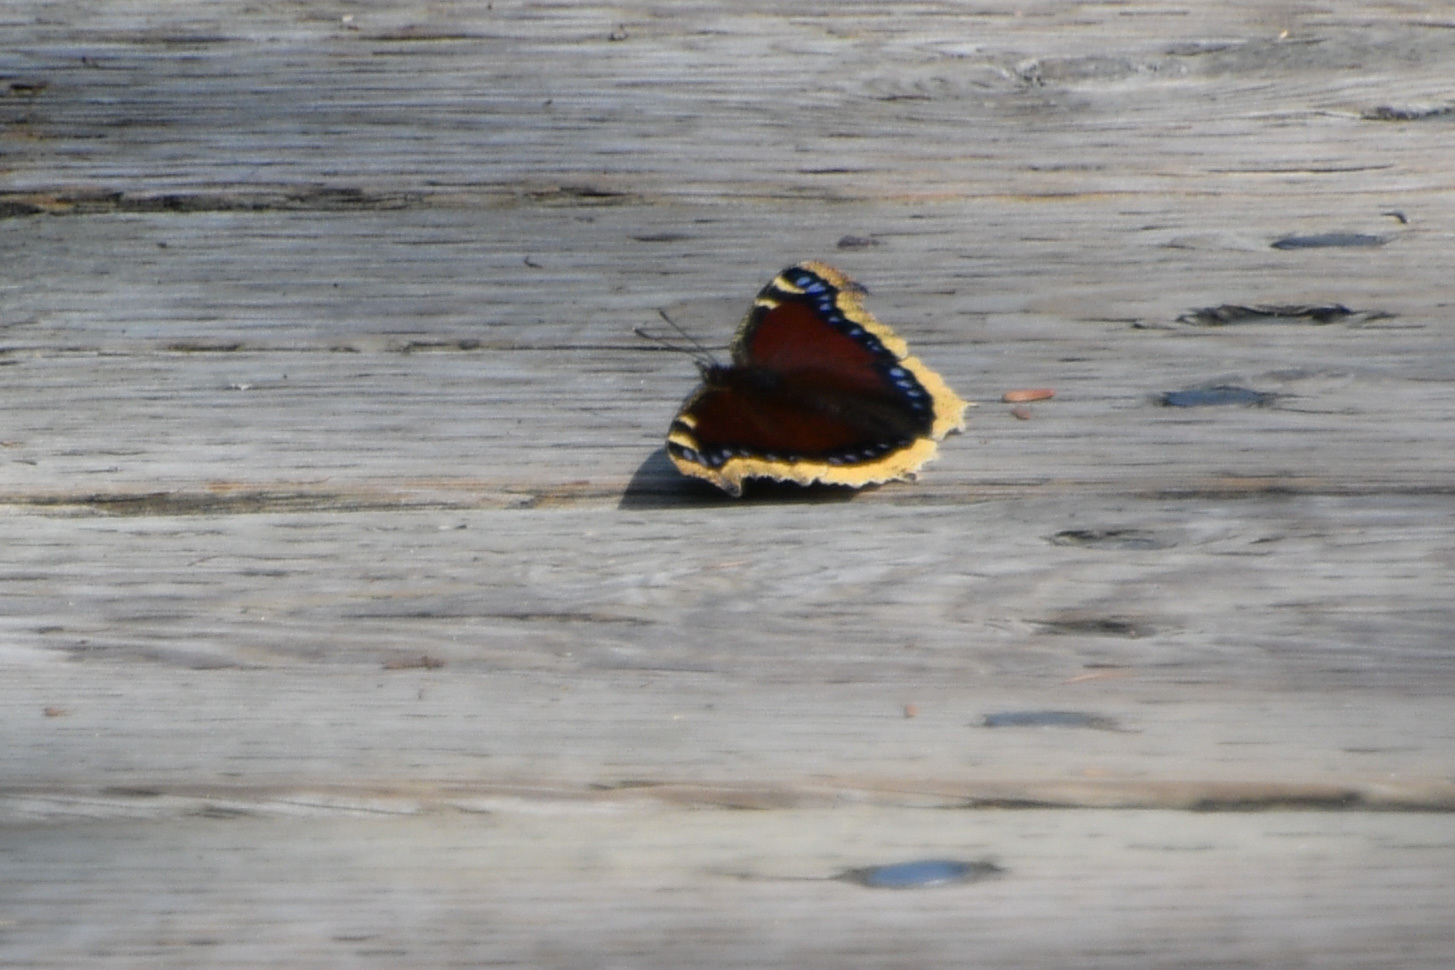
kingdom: Animalia
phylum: Arthropoda
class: Insecta
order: Lepidoptera
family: Nymphalidae
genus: Nymphalis
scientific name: Nymphalis antiopa
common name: Camberwell beauty
